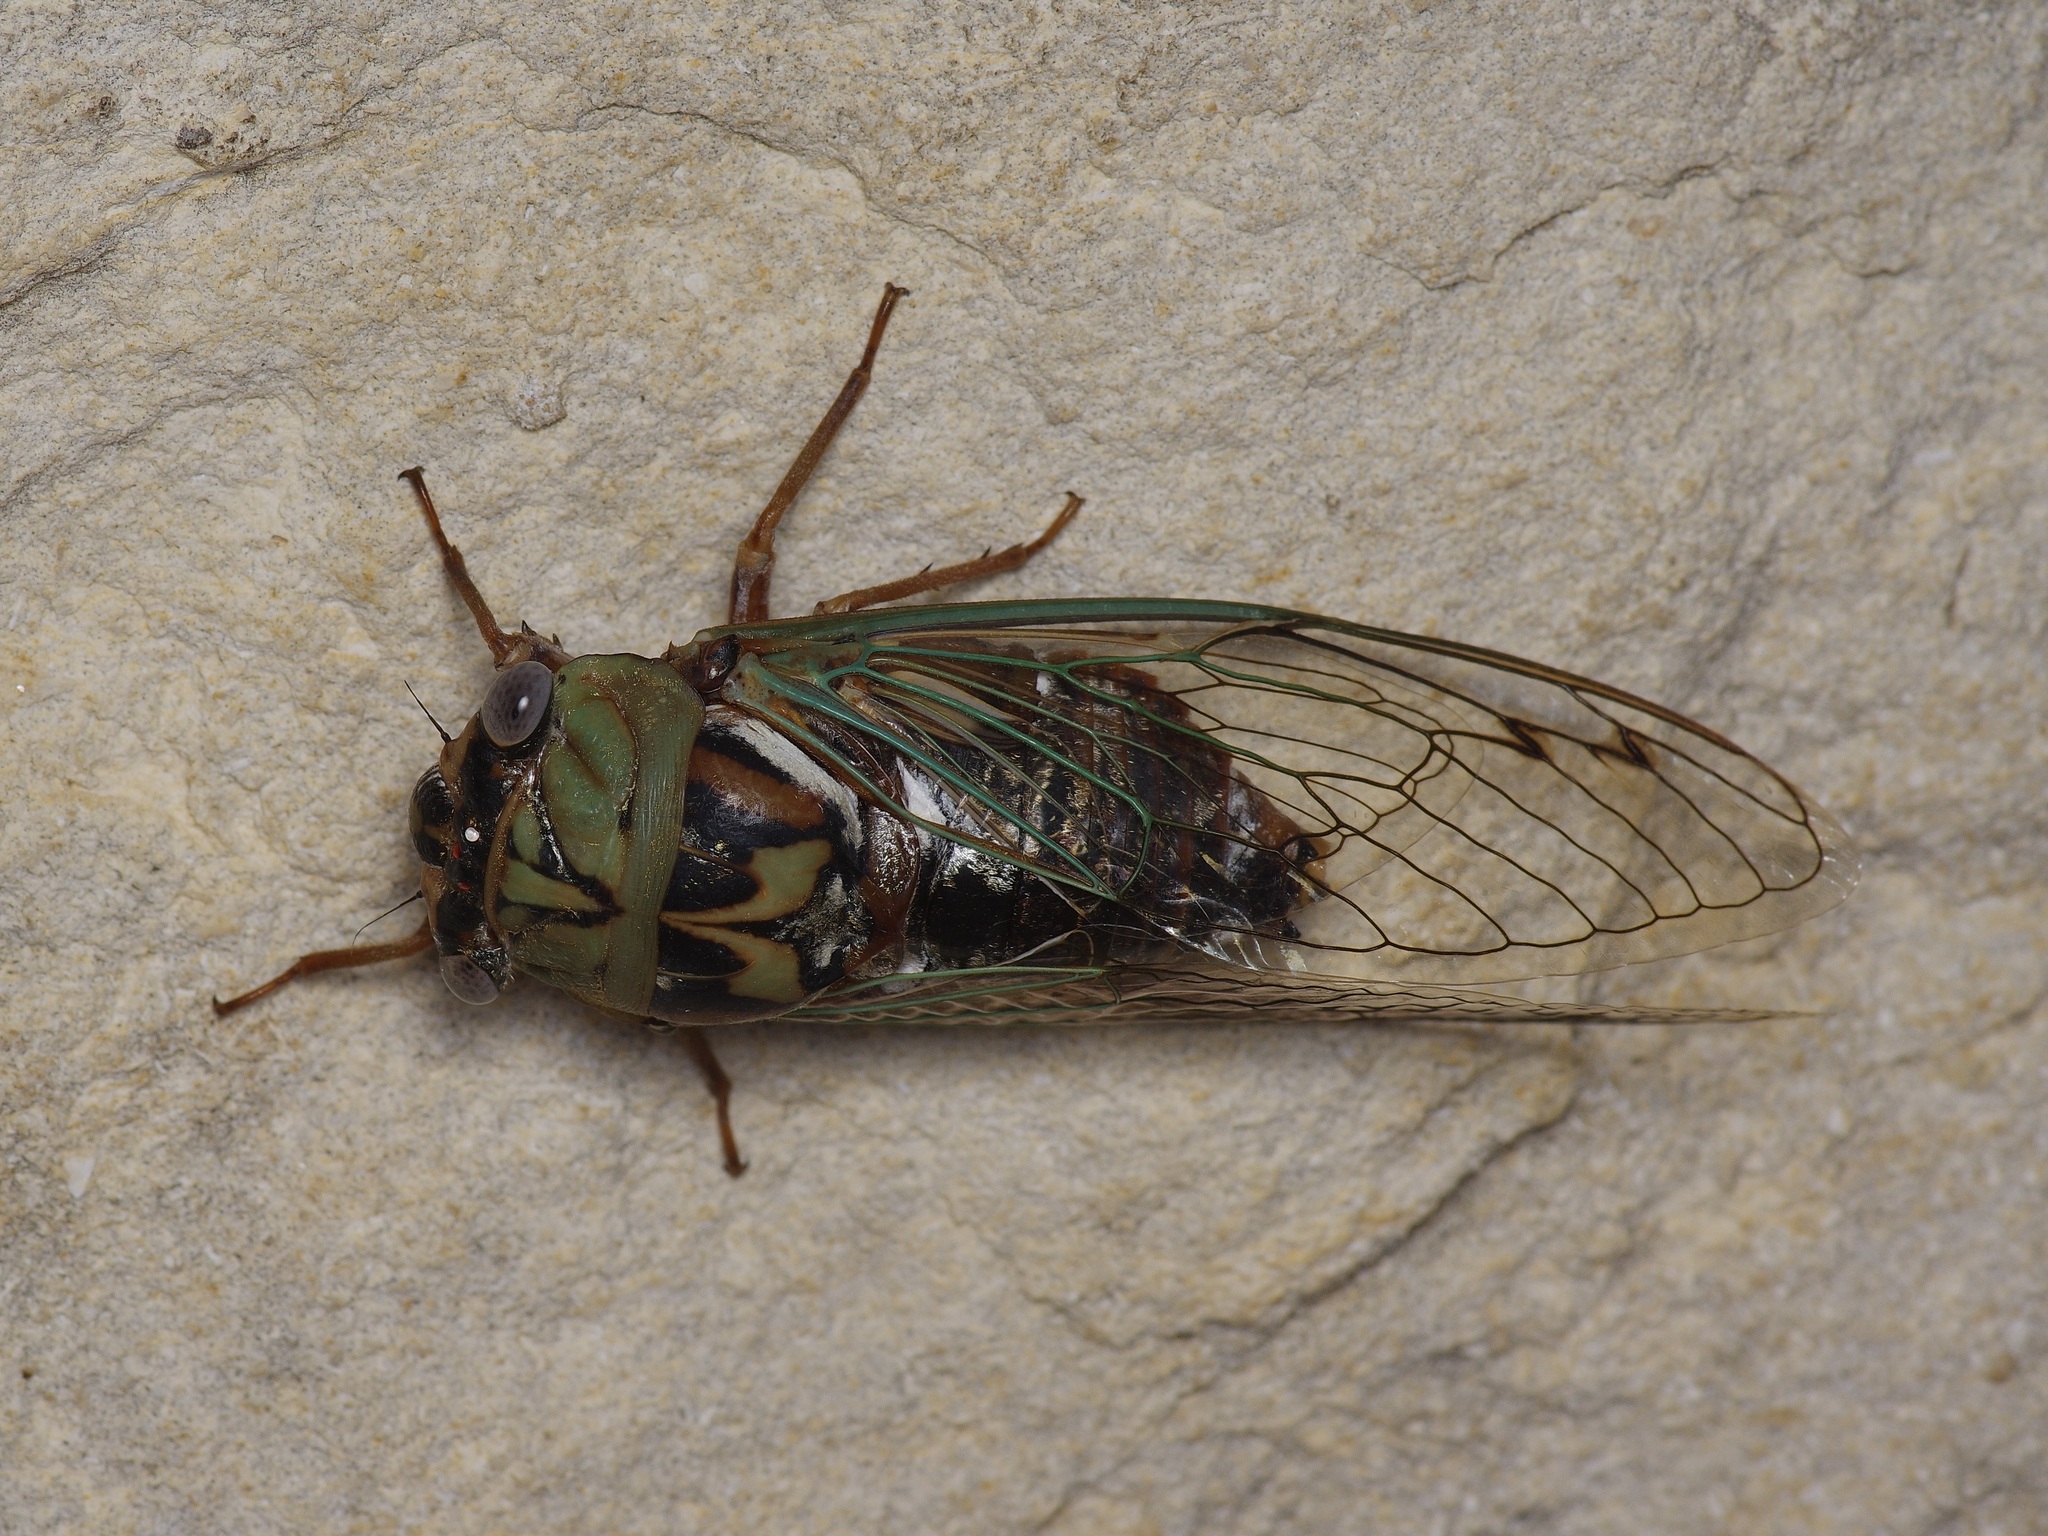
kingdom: Animalia
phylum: Arthropoda
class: Insecta
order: Hemiptera
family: Cicadidae
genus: Megatibicen
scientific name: Megatibicen resh
